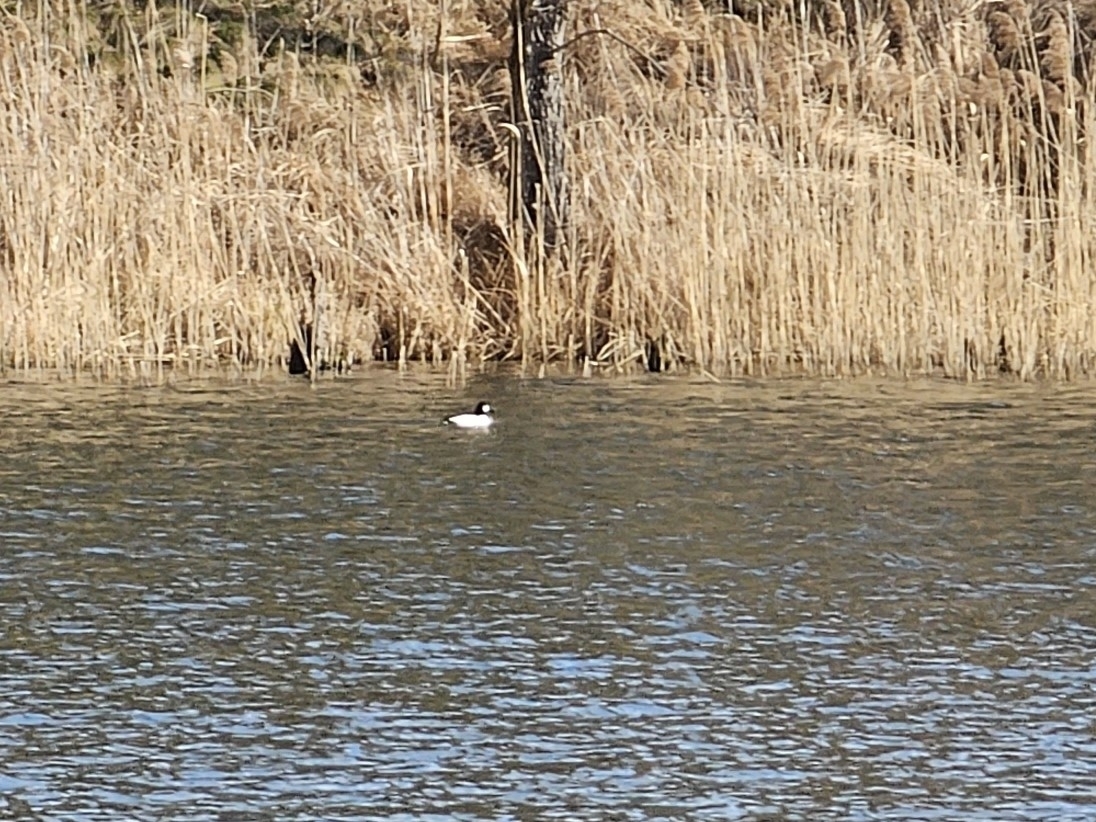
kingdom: Animalia
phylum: Chordata
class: Aves
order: Anseriformes
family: Anatidae
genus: Bucephala
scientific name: Bucephala clangula
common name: Common goldeneye
